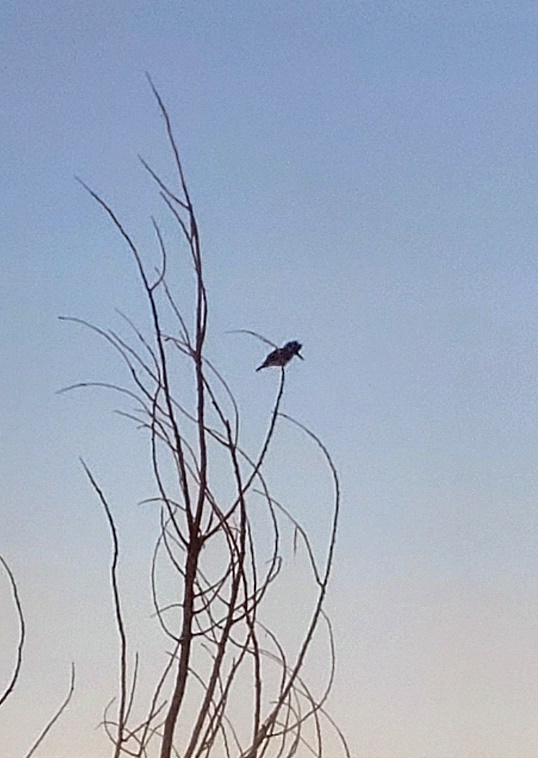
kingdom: Animalia
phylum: Chordata
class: Aves
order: Coraciiformes
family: Alcedinidae
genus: Megaceryle
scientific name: Megaceryle alcyon
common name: Belted kingfisher
